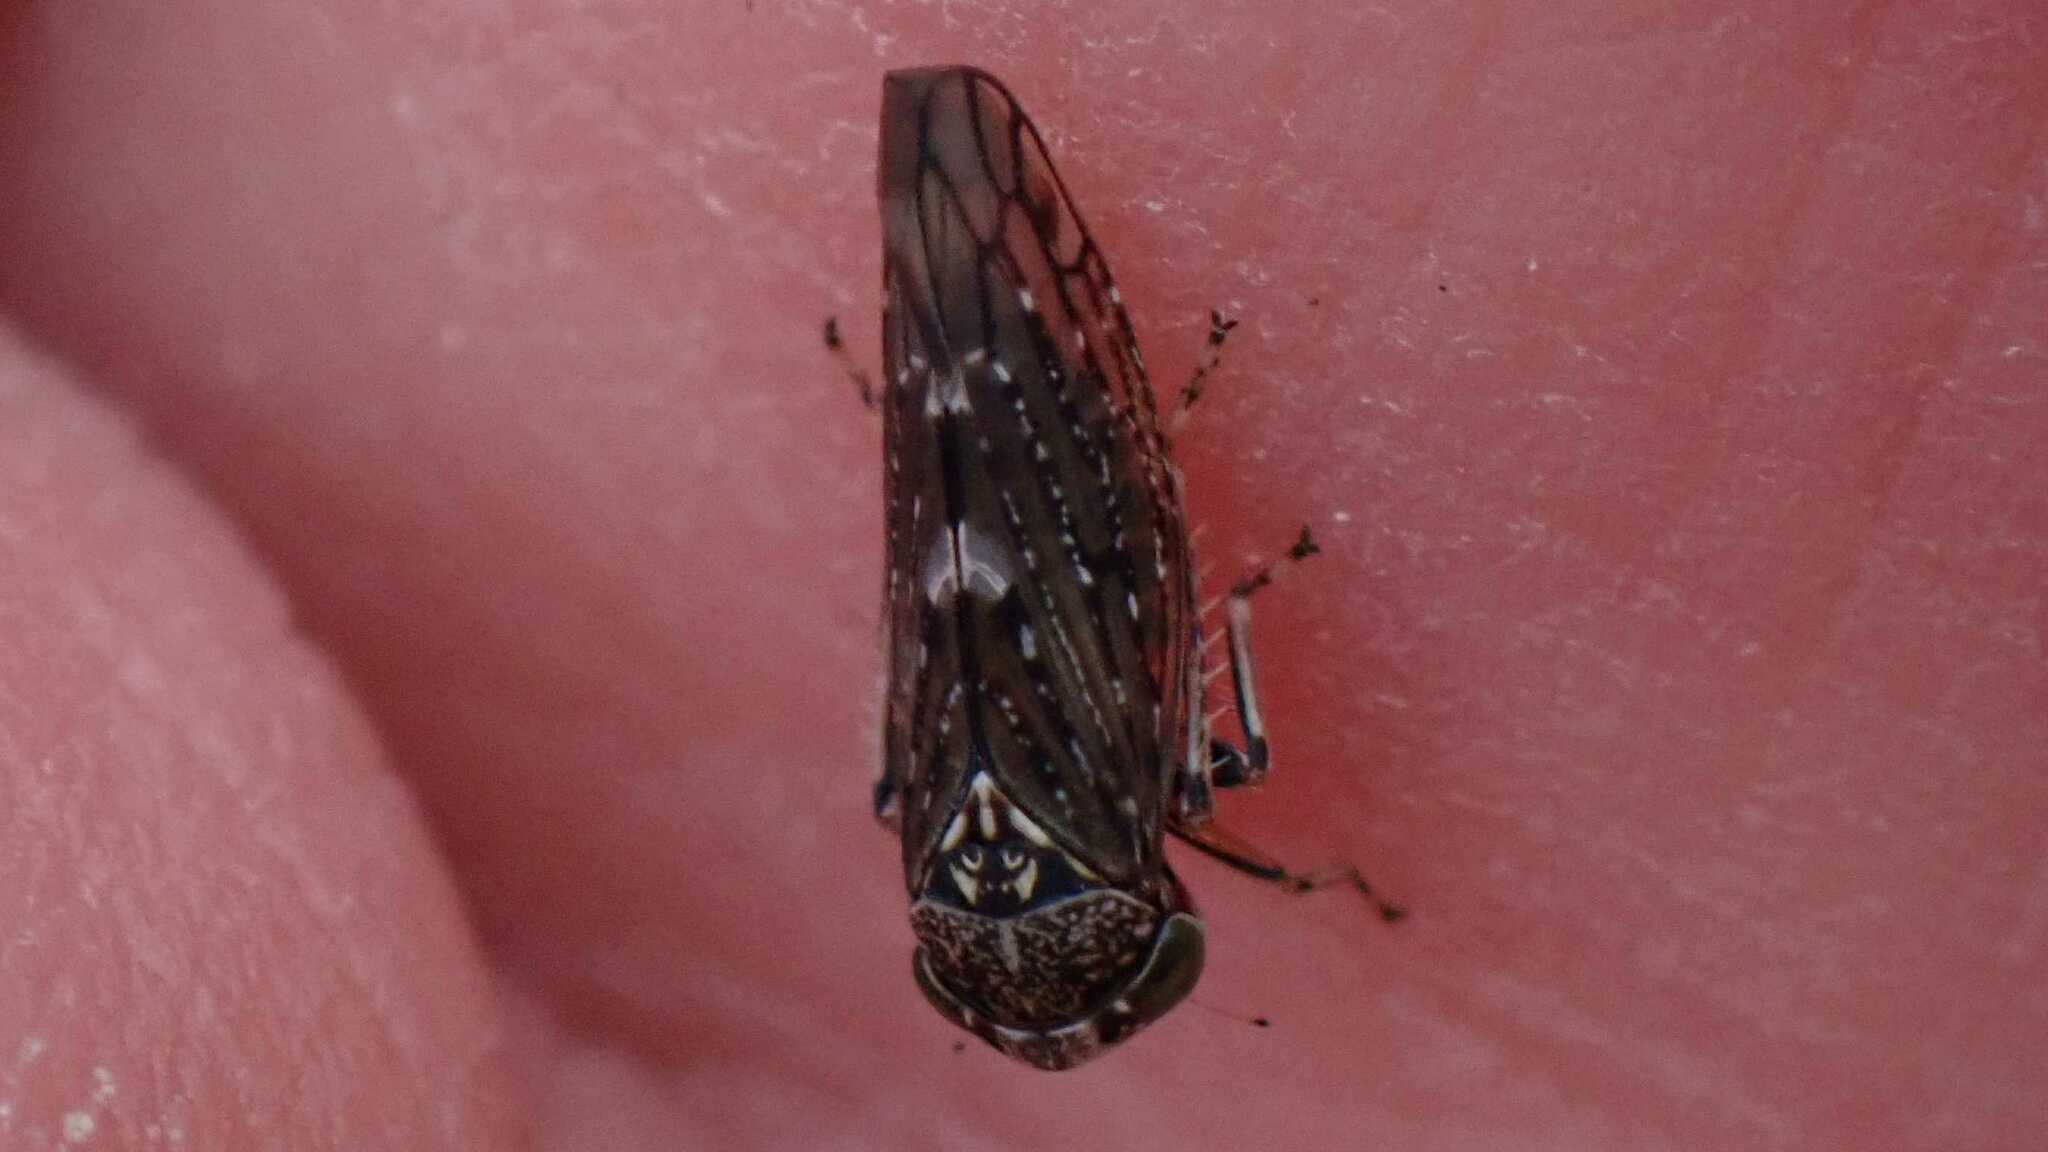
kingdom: Animalia
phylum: Arthropoda
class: Insecta
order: Hemiptera
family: Cicadellidae
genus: Acericerus
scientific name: Acericerus heydenii
